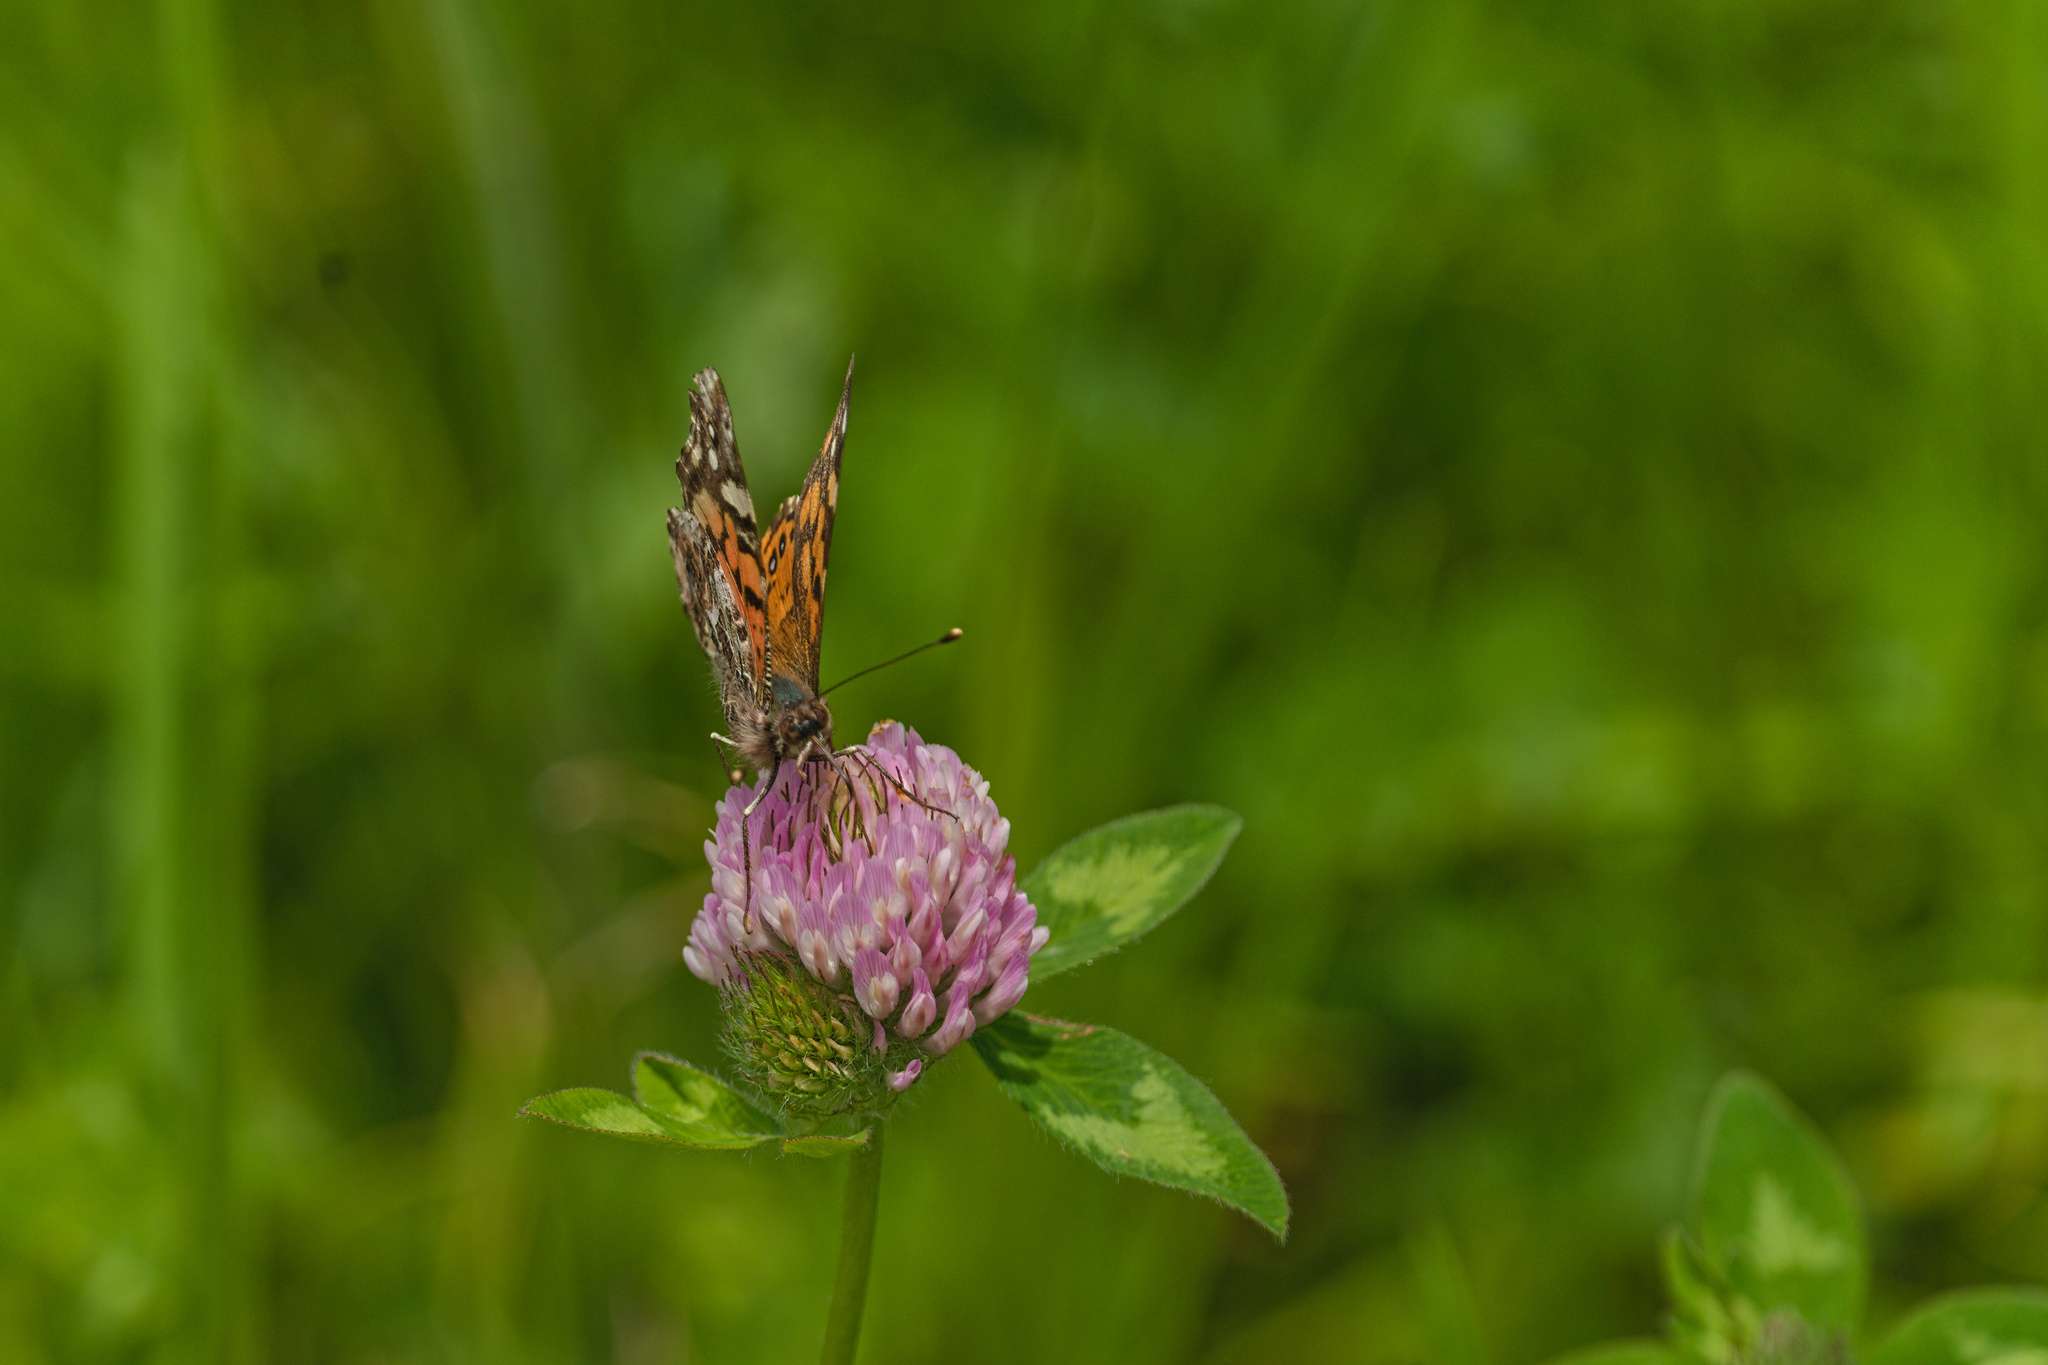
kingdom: Animalia
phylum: Arthropoda
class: Insecta
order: Lepidoptera
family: Nymphalidae
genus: Vanessa
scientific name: Vanessa carye
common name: Subtropical lady
